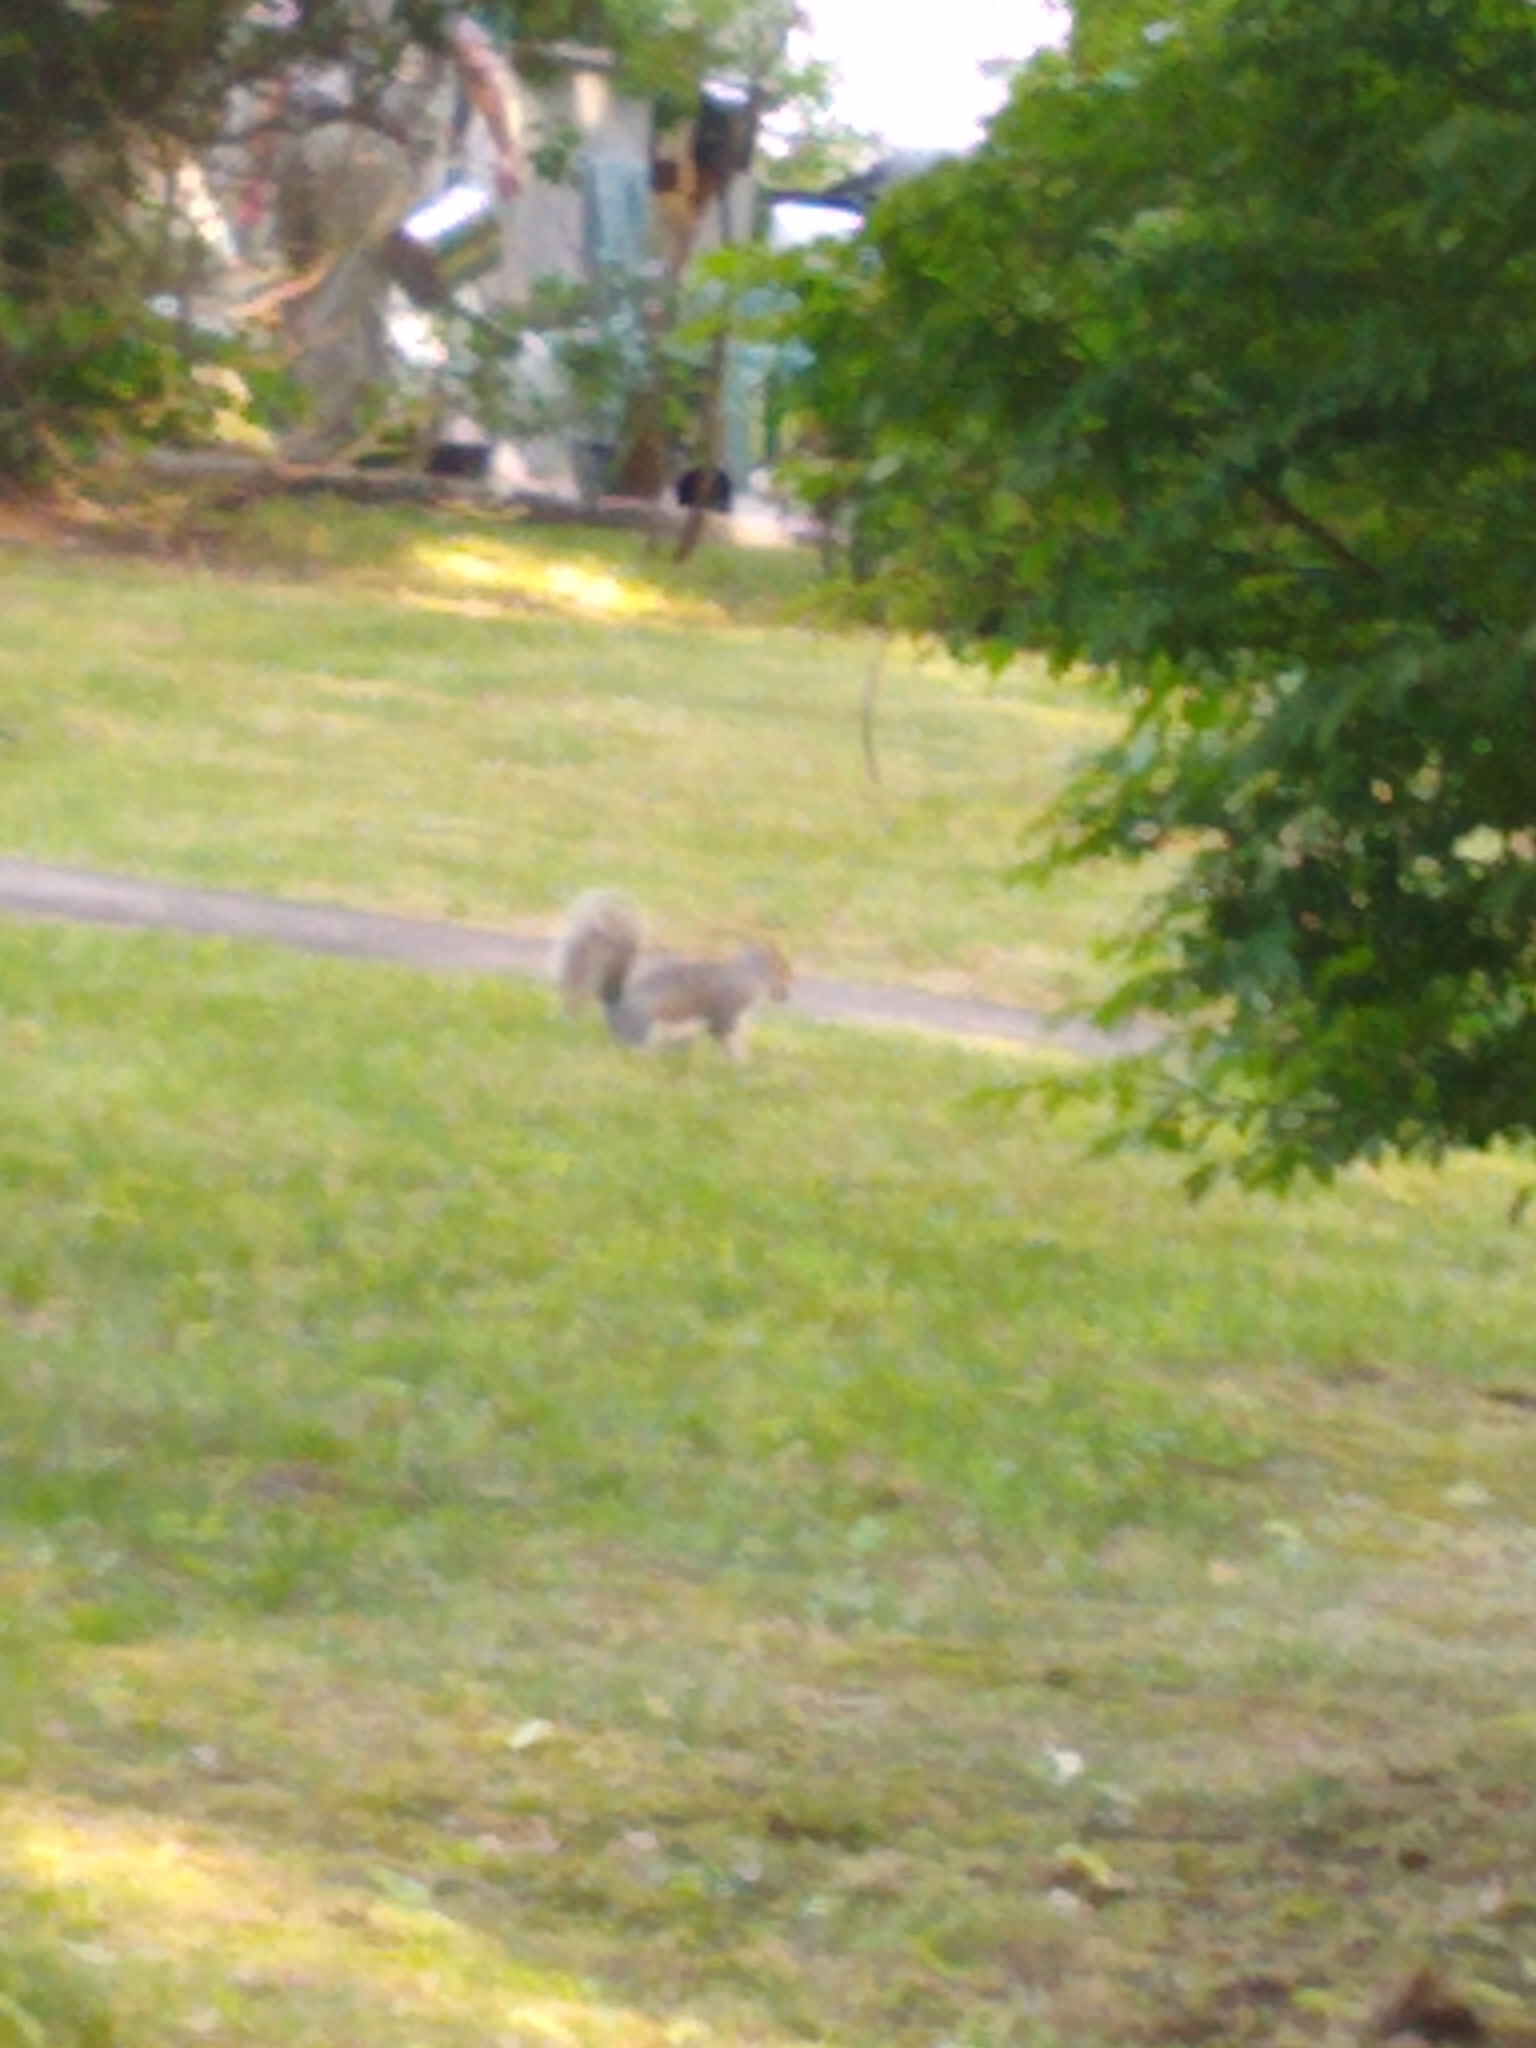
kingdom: Animalia
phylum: Chordata
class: Mammalia
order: Rodentia
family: Sciuridae
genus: Sciurus
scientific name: Sciurus carolinensis
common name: Eastern gray squirrel
